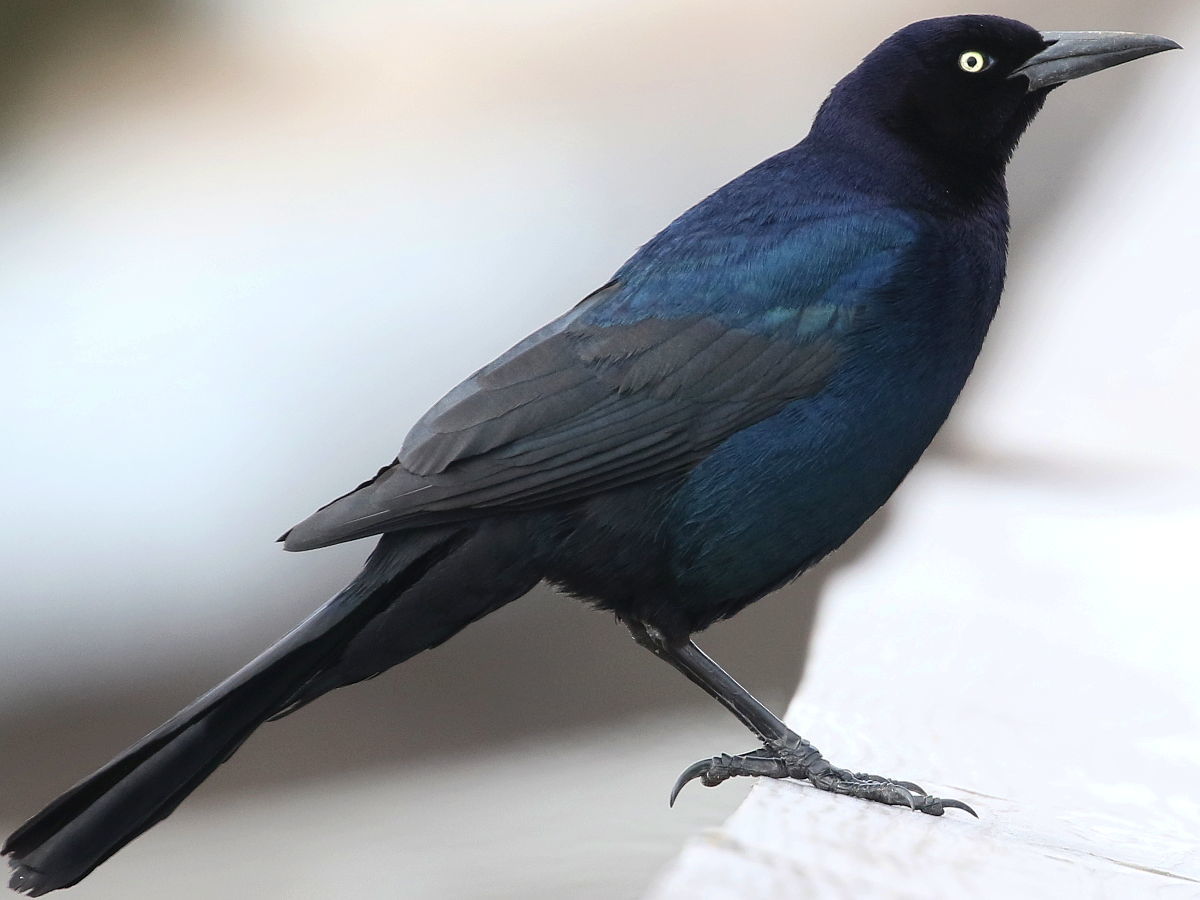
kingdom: Animalia
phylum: Chordata
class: Aves
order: Passeriformes
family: Icteridae
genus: Quiscalus
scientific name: Quiscalus major
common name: Boat-tailed grackle
